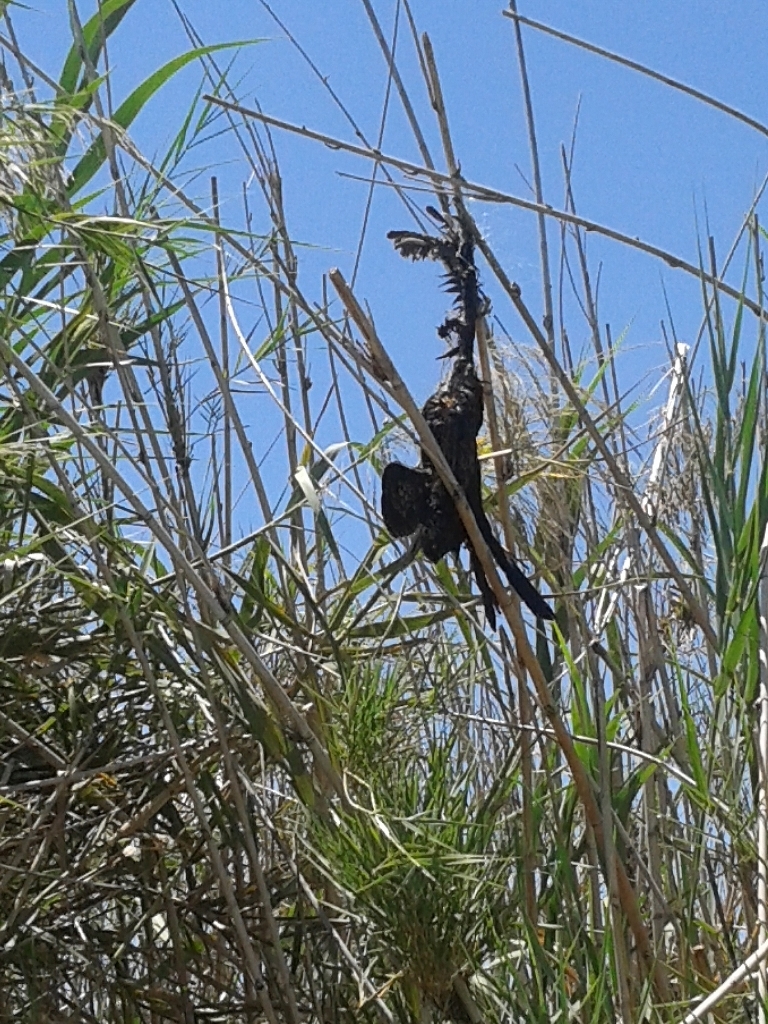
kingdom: Animalia
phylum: Chordata
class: Aves
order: Suliformes
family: Phalacrocoracidae
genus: Microcarbo
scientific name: Microcarbo africanus
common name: Long-tailed cormorant
